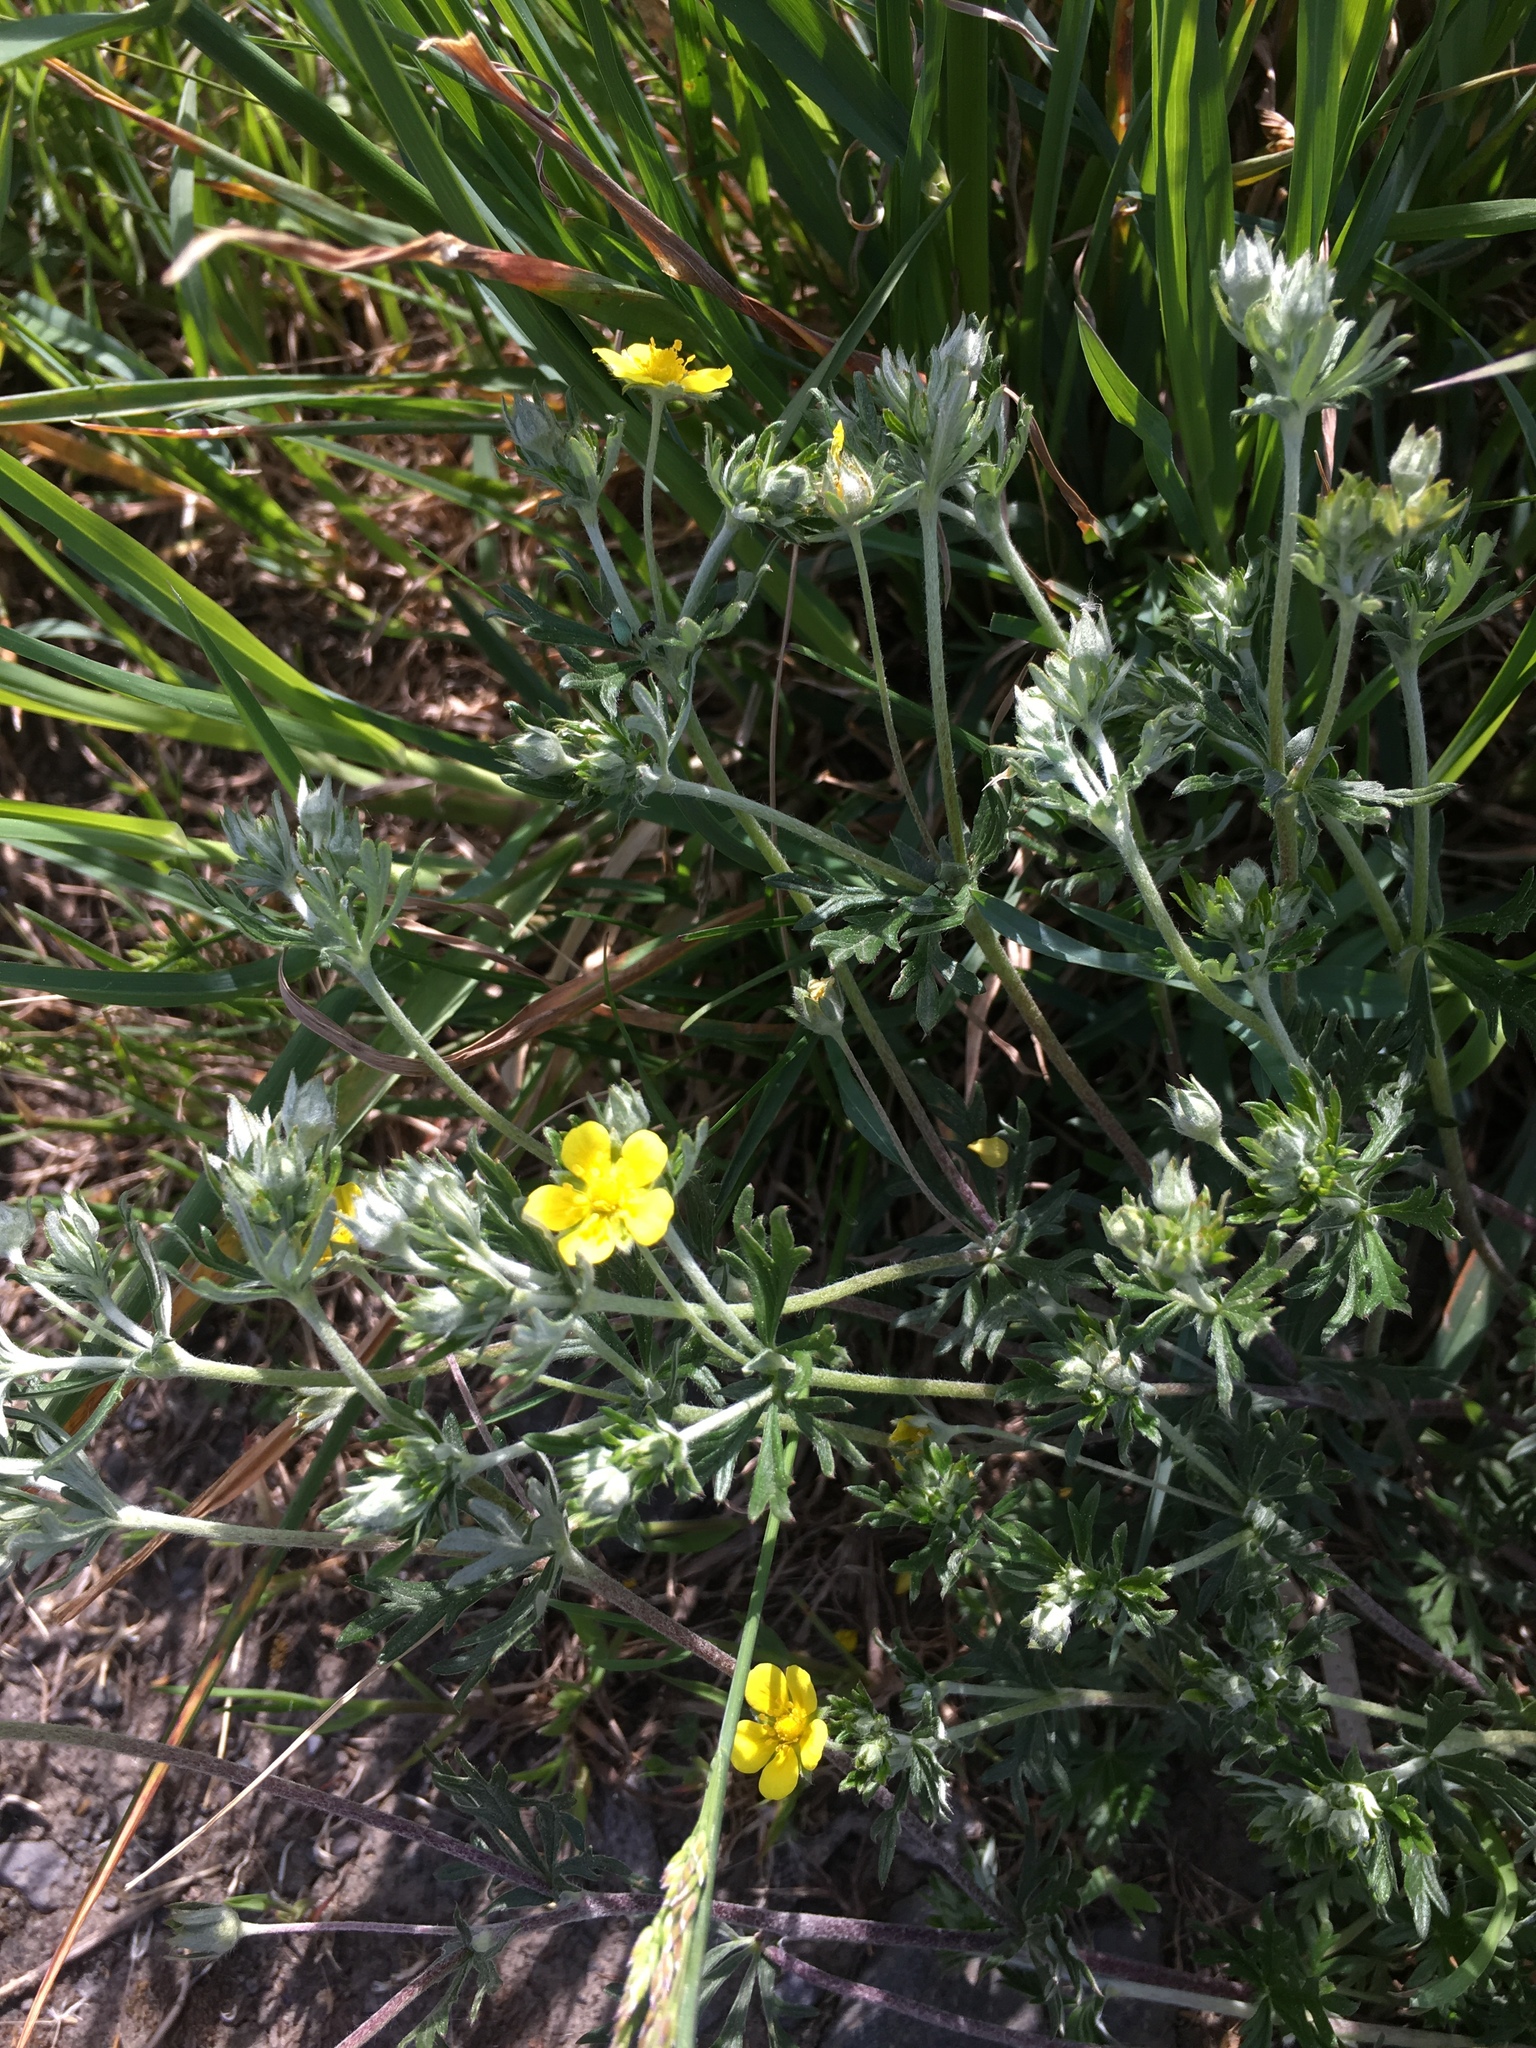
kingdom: Plantae
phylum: Tracheophyta
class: Magnoliopsida
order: Rosales
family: Rosaceae
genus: Potentilla
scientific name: Potentilla argentea
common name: Hoary cinquefoil
